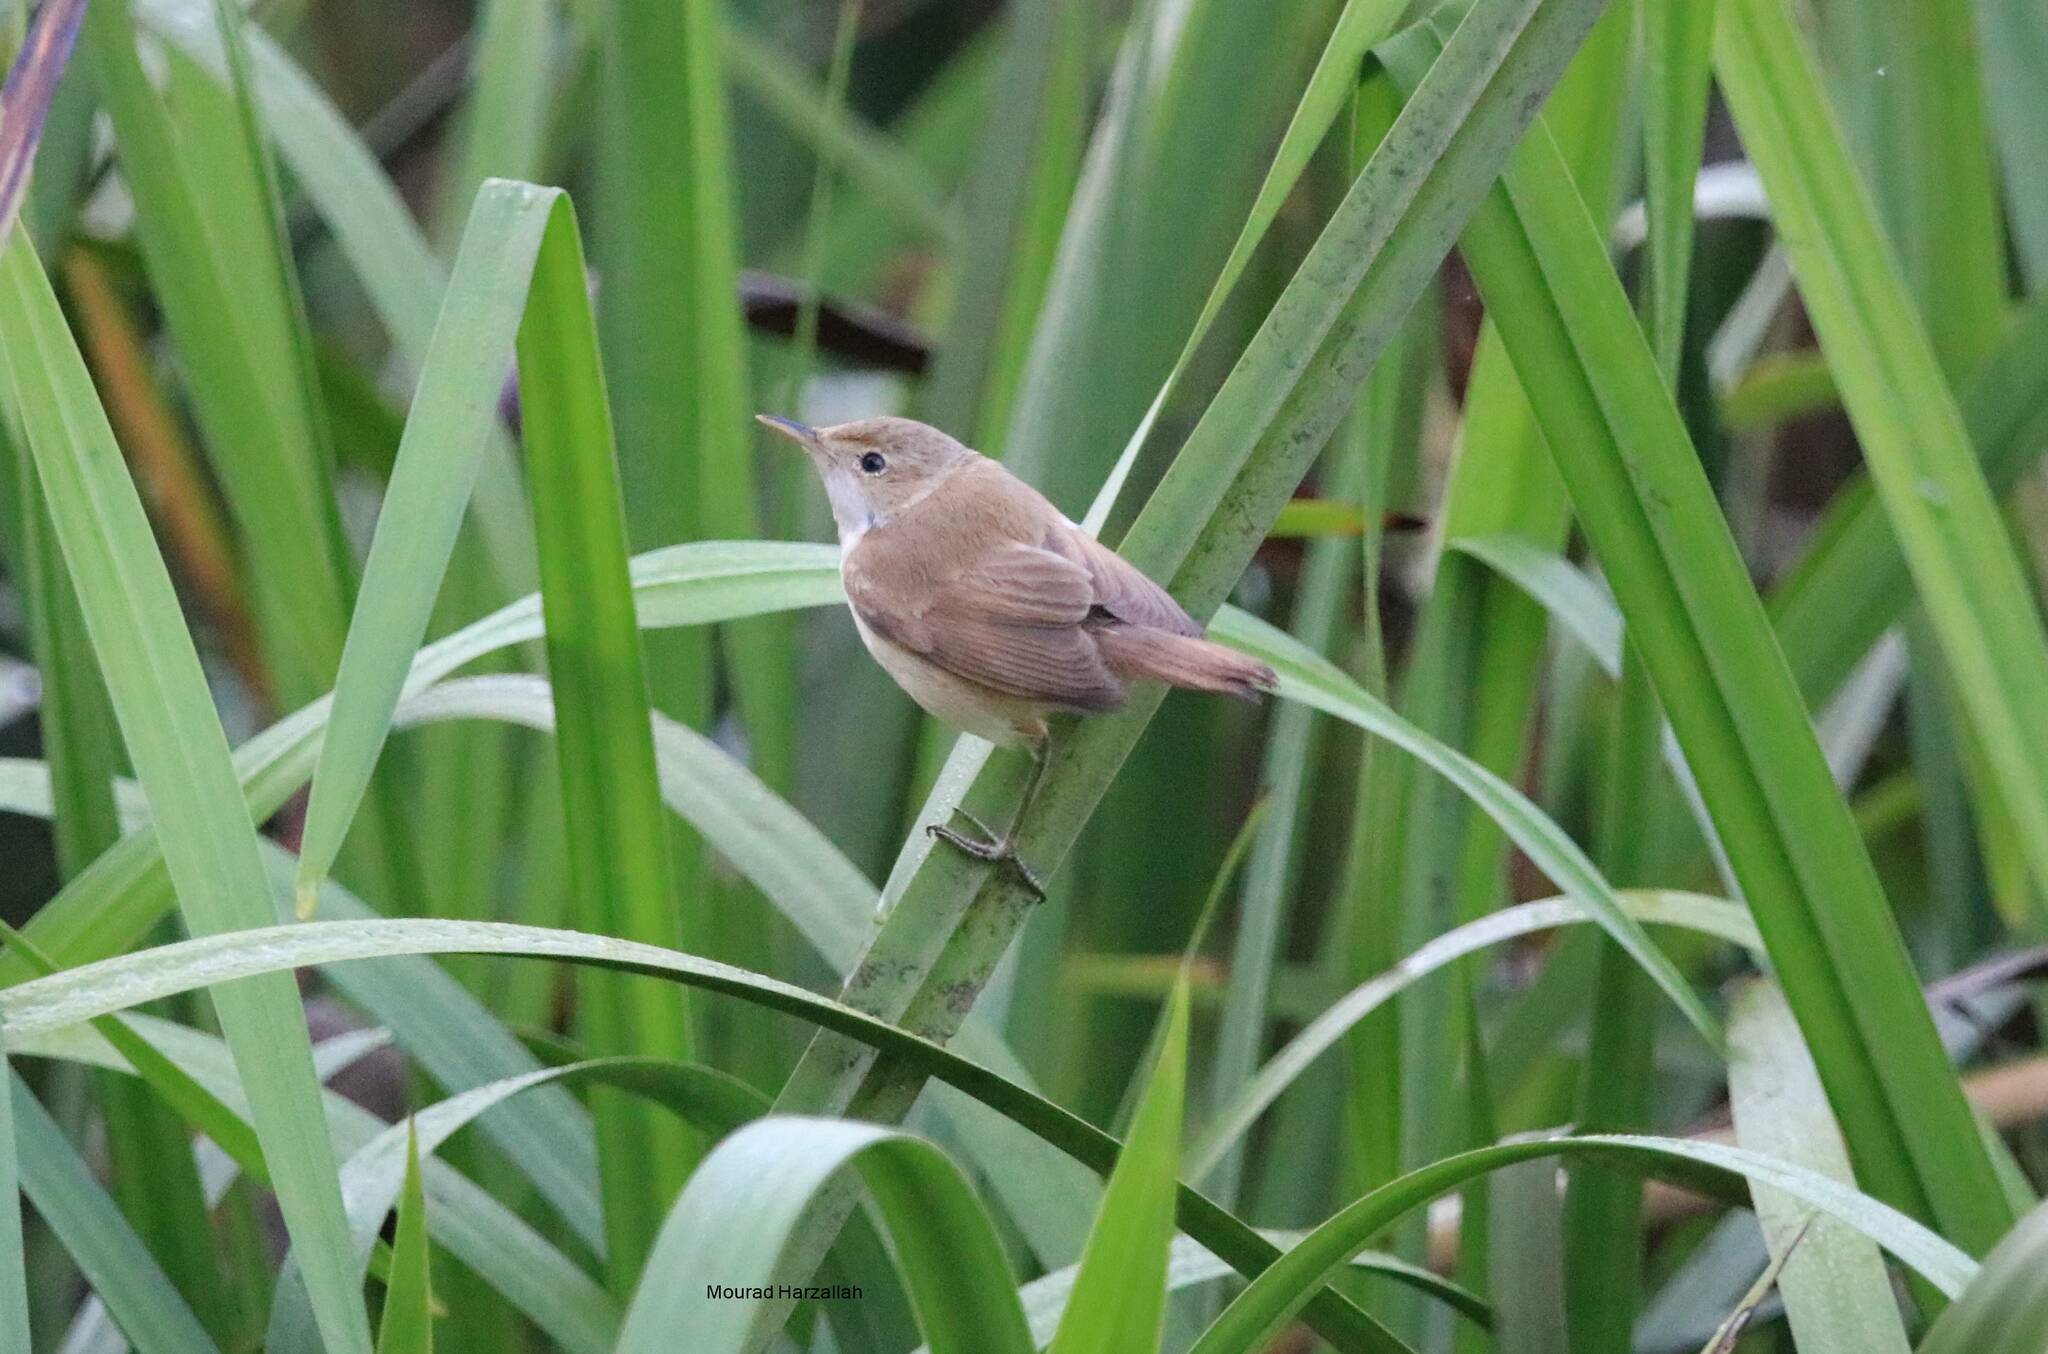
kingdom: Animalia
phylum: Chordata
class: Aves
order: Passeriformes
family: Acrocephalidae
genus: Acrocephalus
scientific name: Acrocephalus scirpaceus
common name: Eurasian reed warbler
